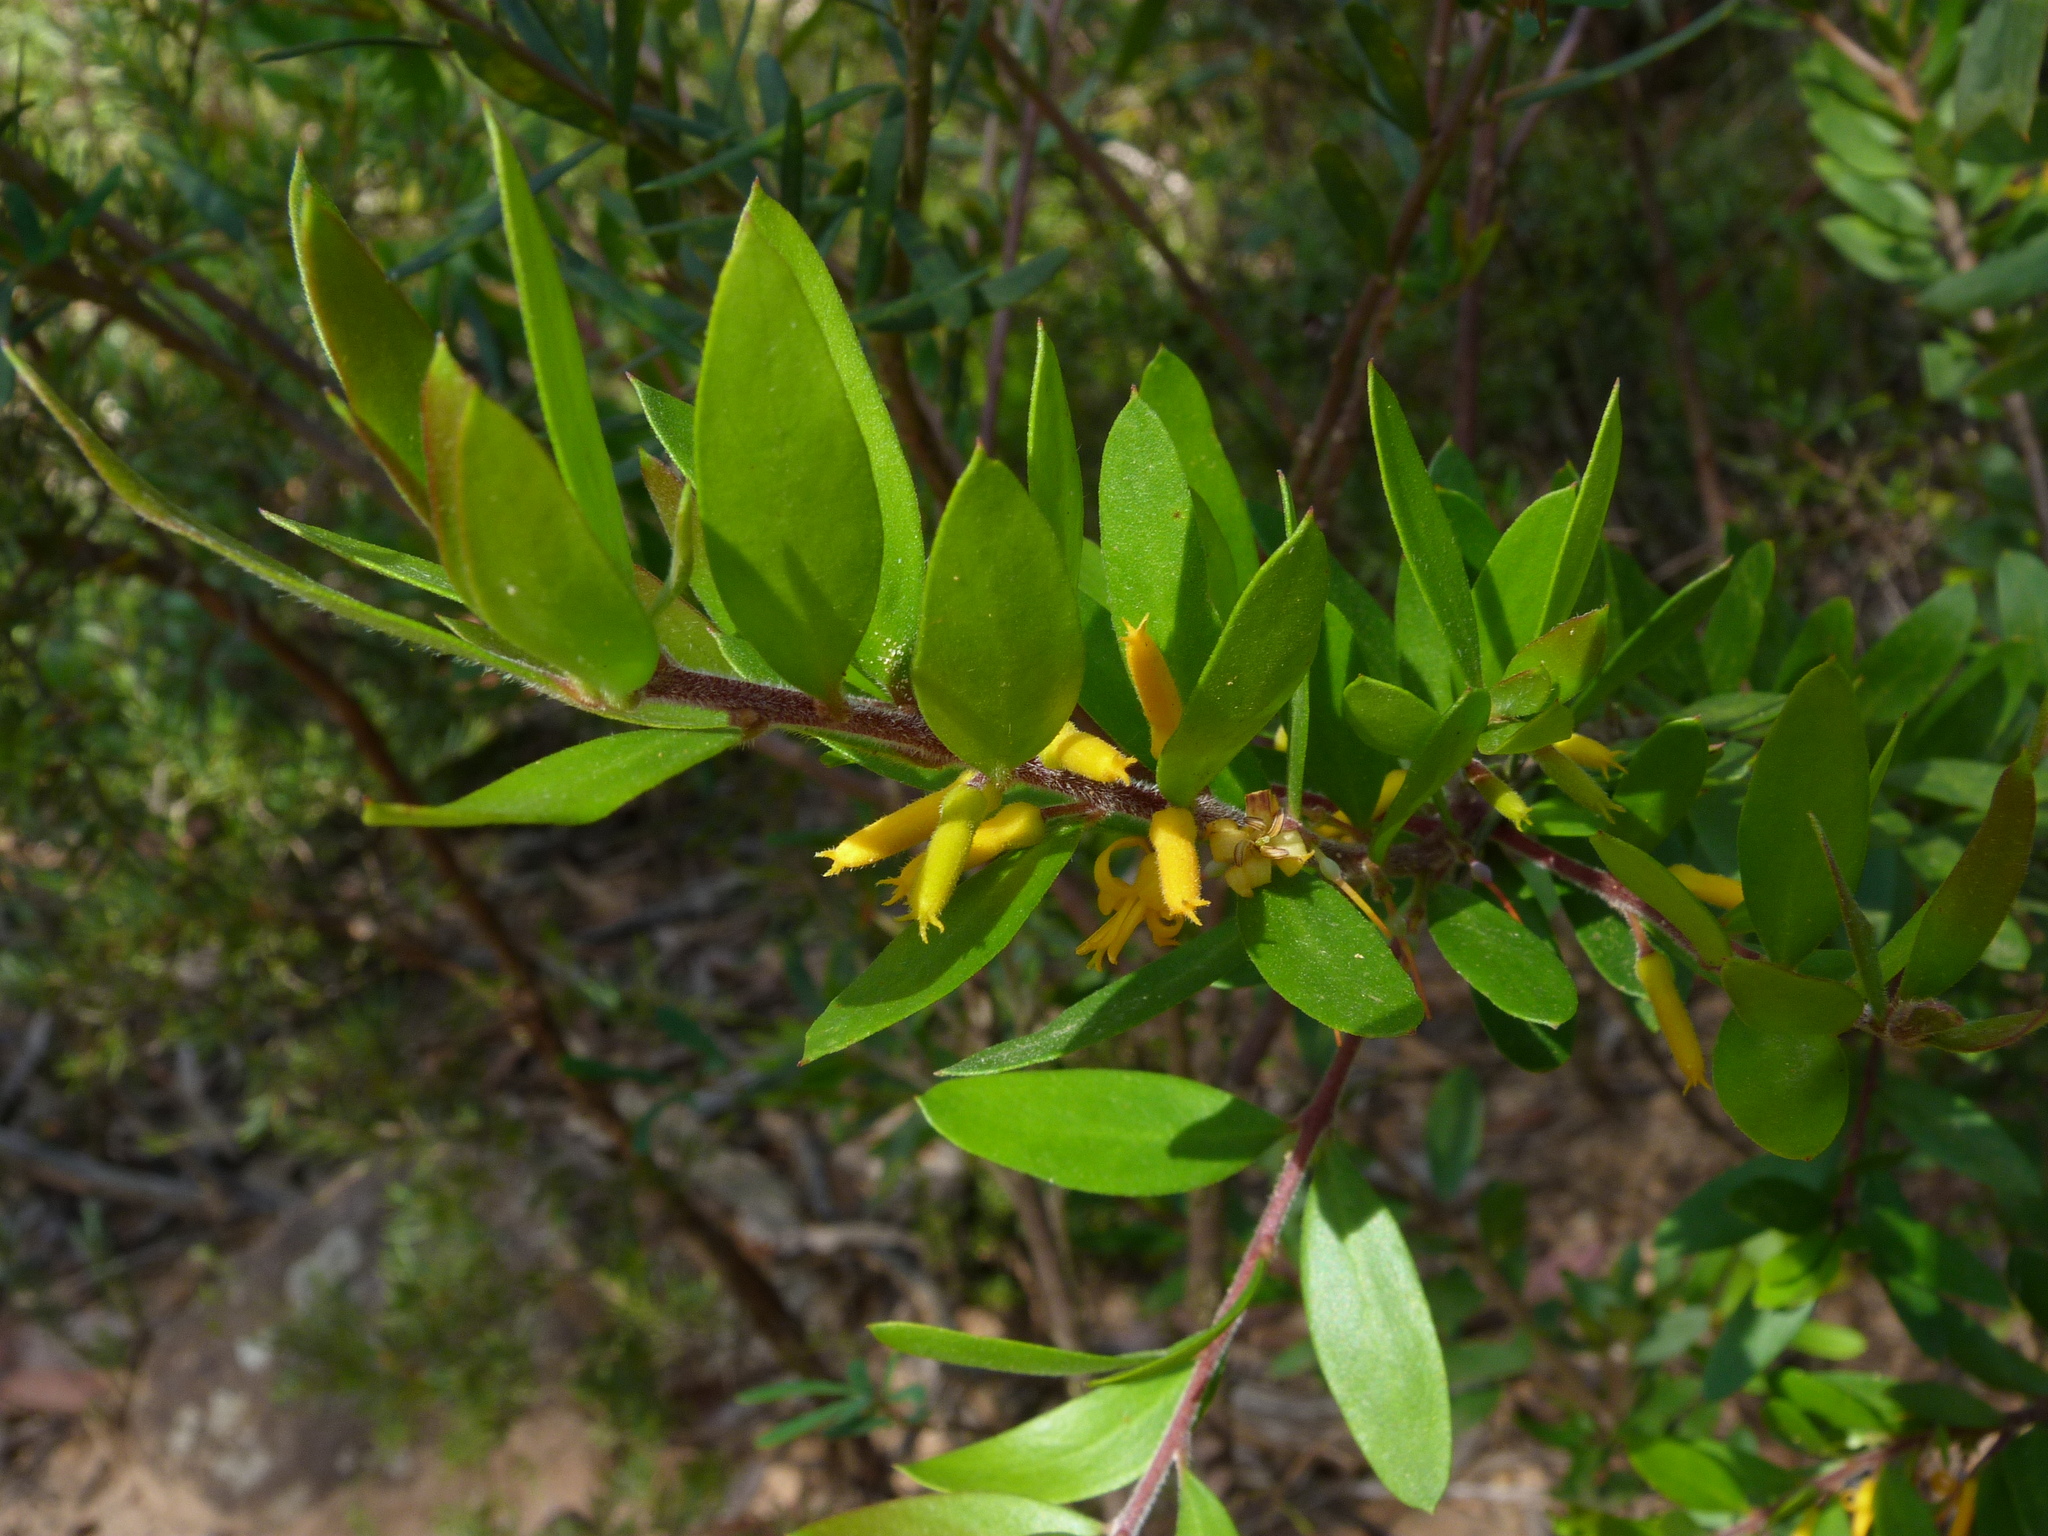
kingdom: Plantae
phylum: Tracheophyta
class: Magnoliopsida
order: Proteales
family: Proteaceae
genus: Persoonia
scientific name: Persoonia myrtilloides
